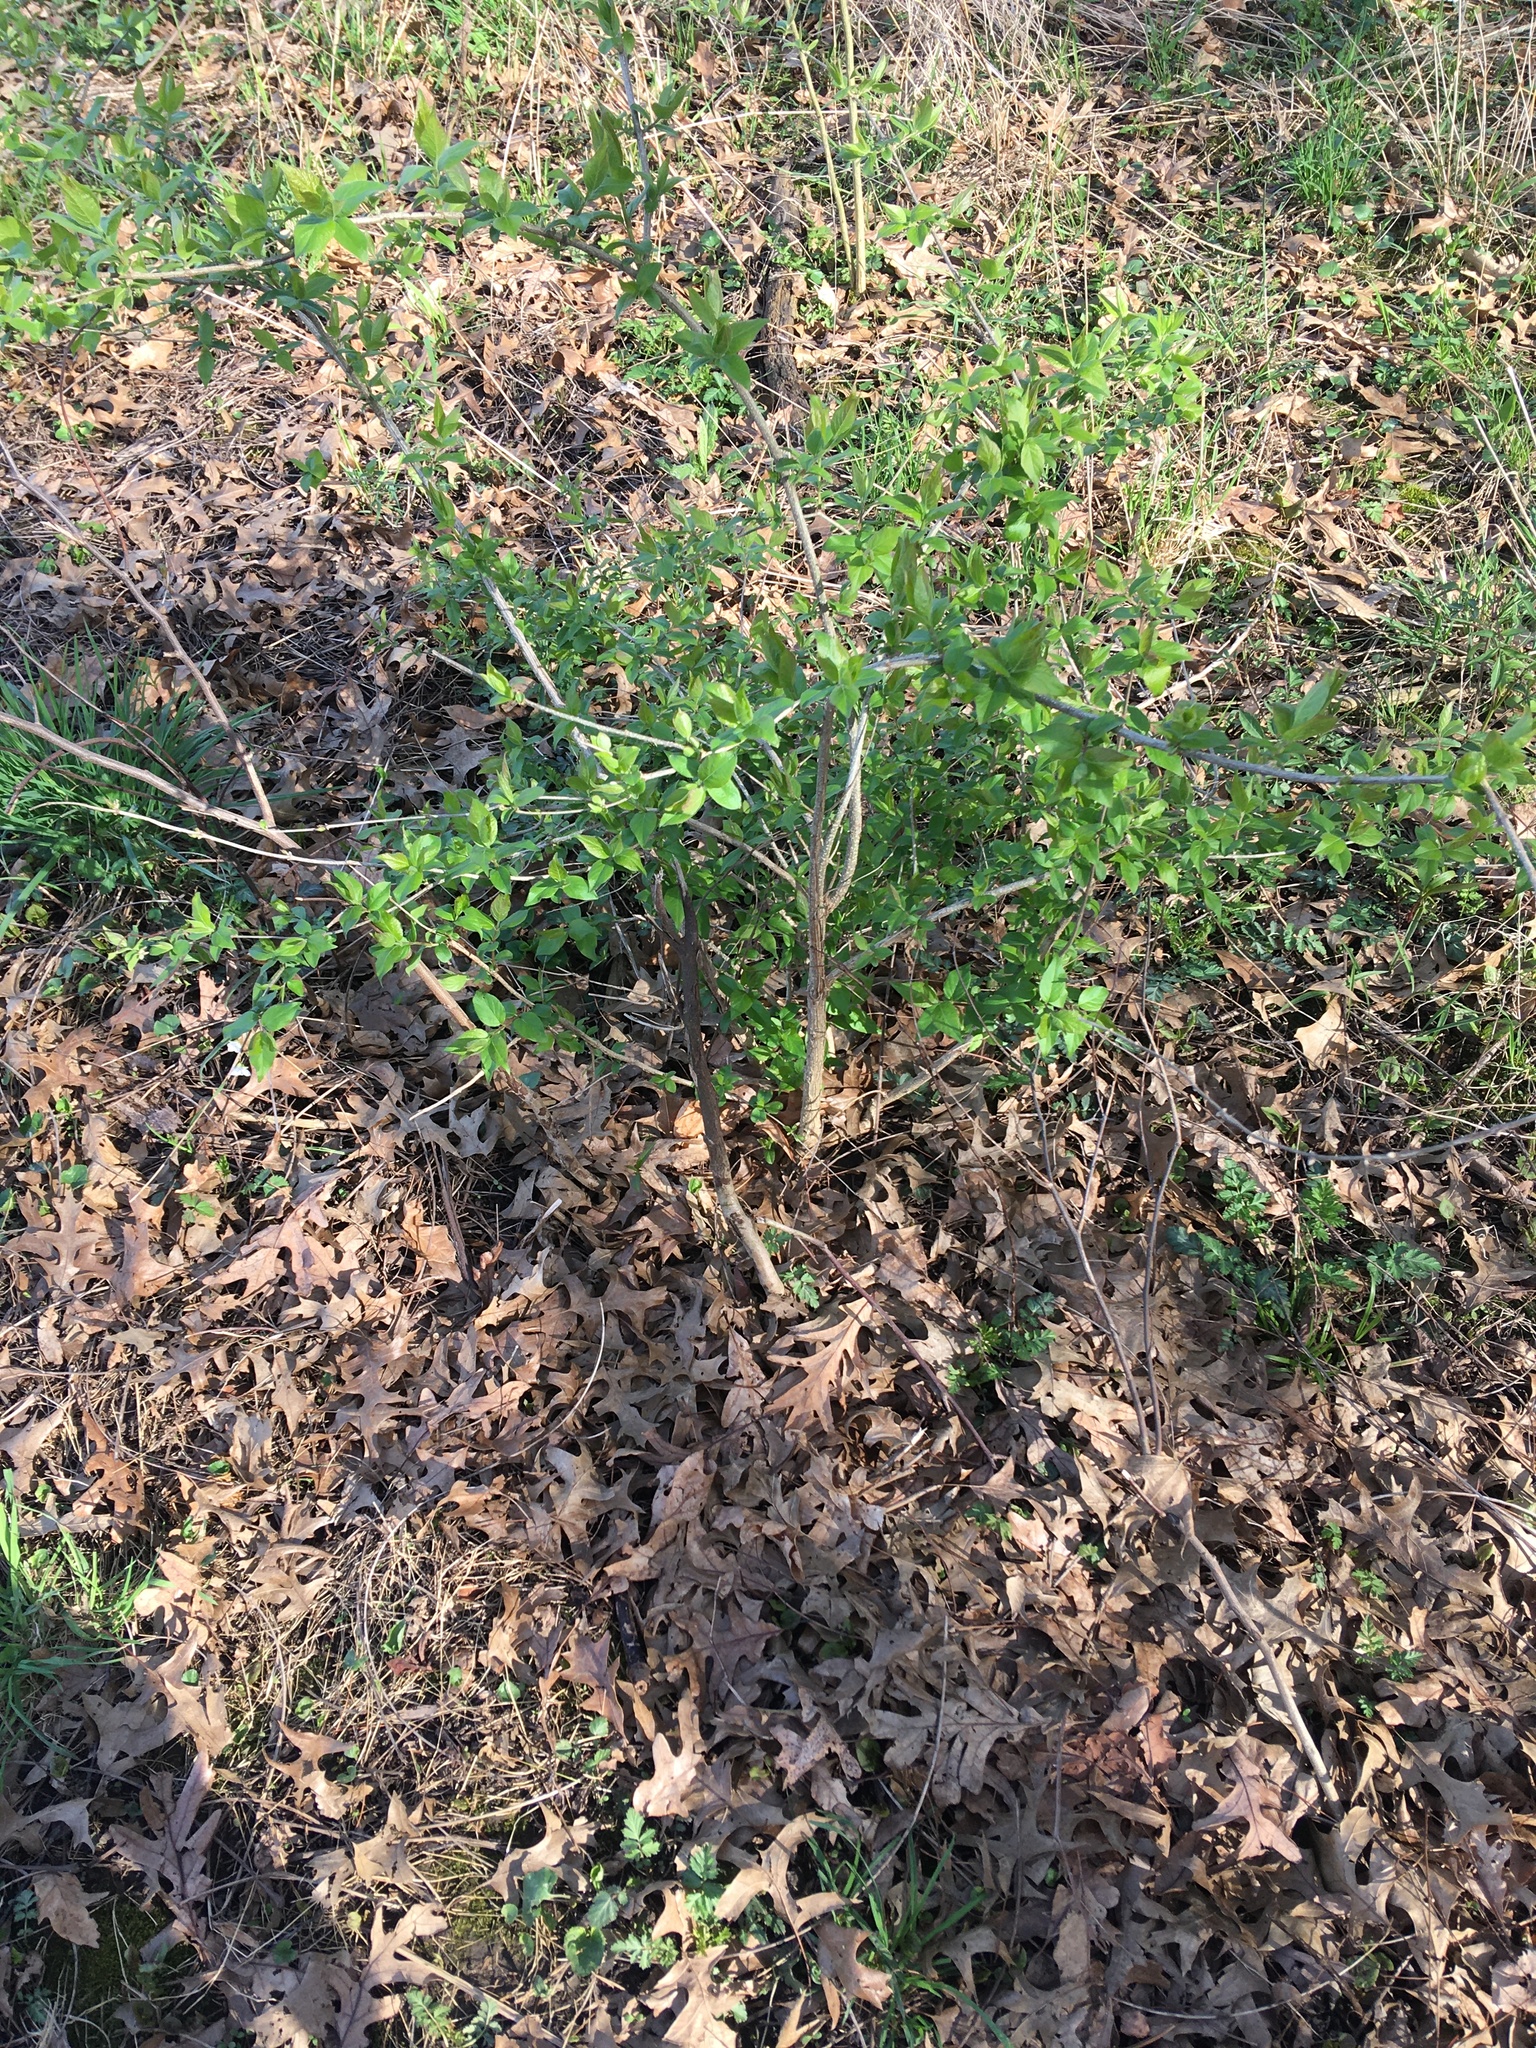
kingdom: Plantae
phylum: Tracheophyta
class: Magnoliopsida
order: Dipsacales
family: Caprifoliaceae
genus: Lonicera
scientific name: Lonicera maackii
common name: Amur honeysuckle
